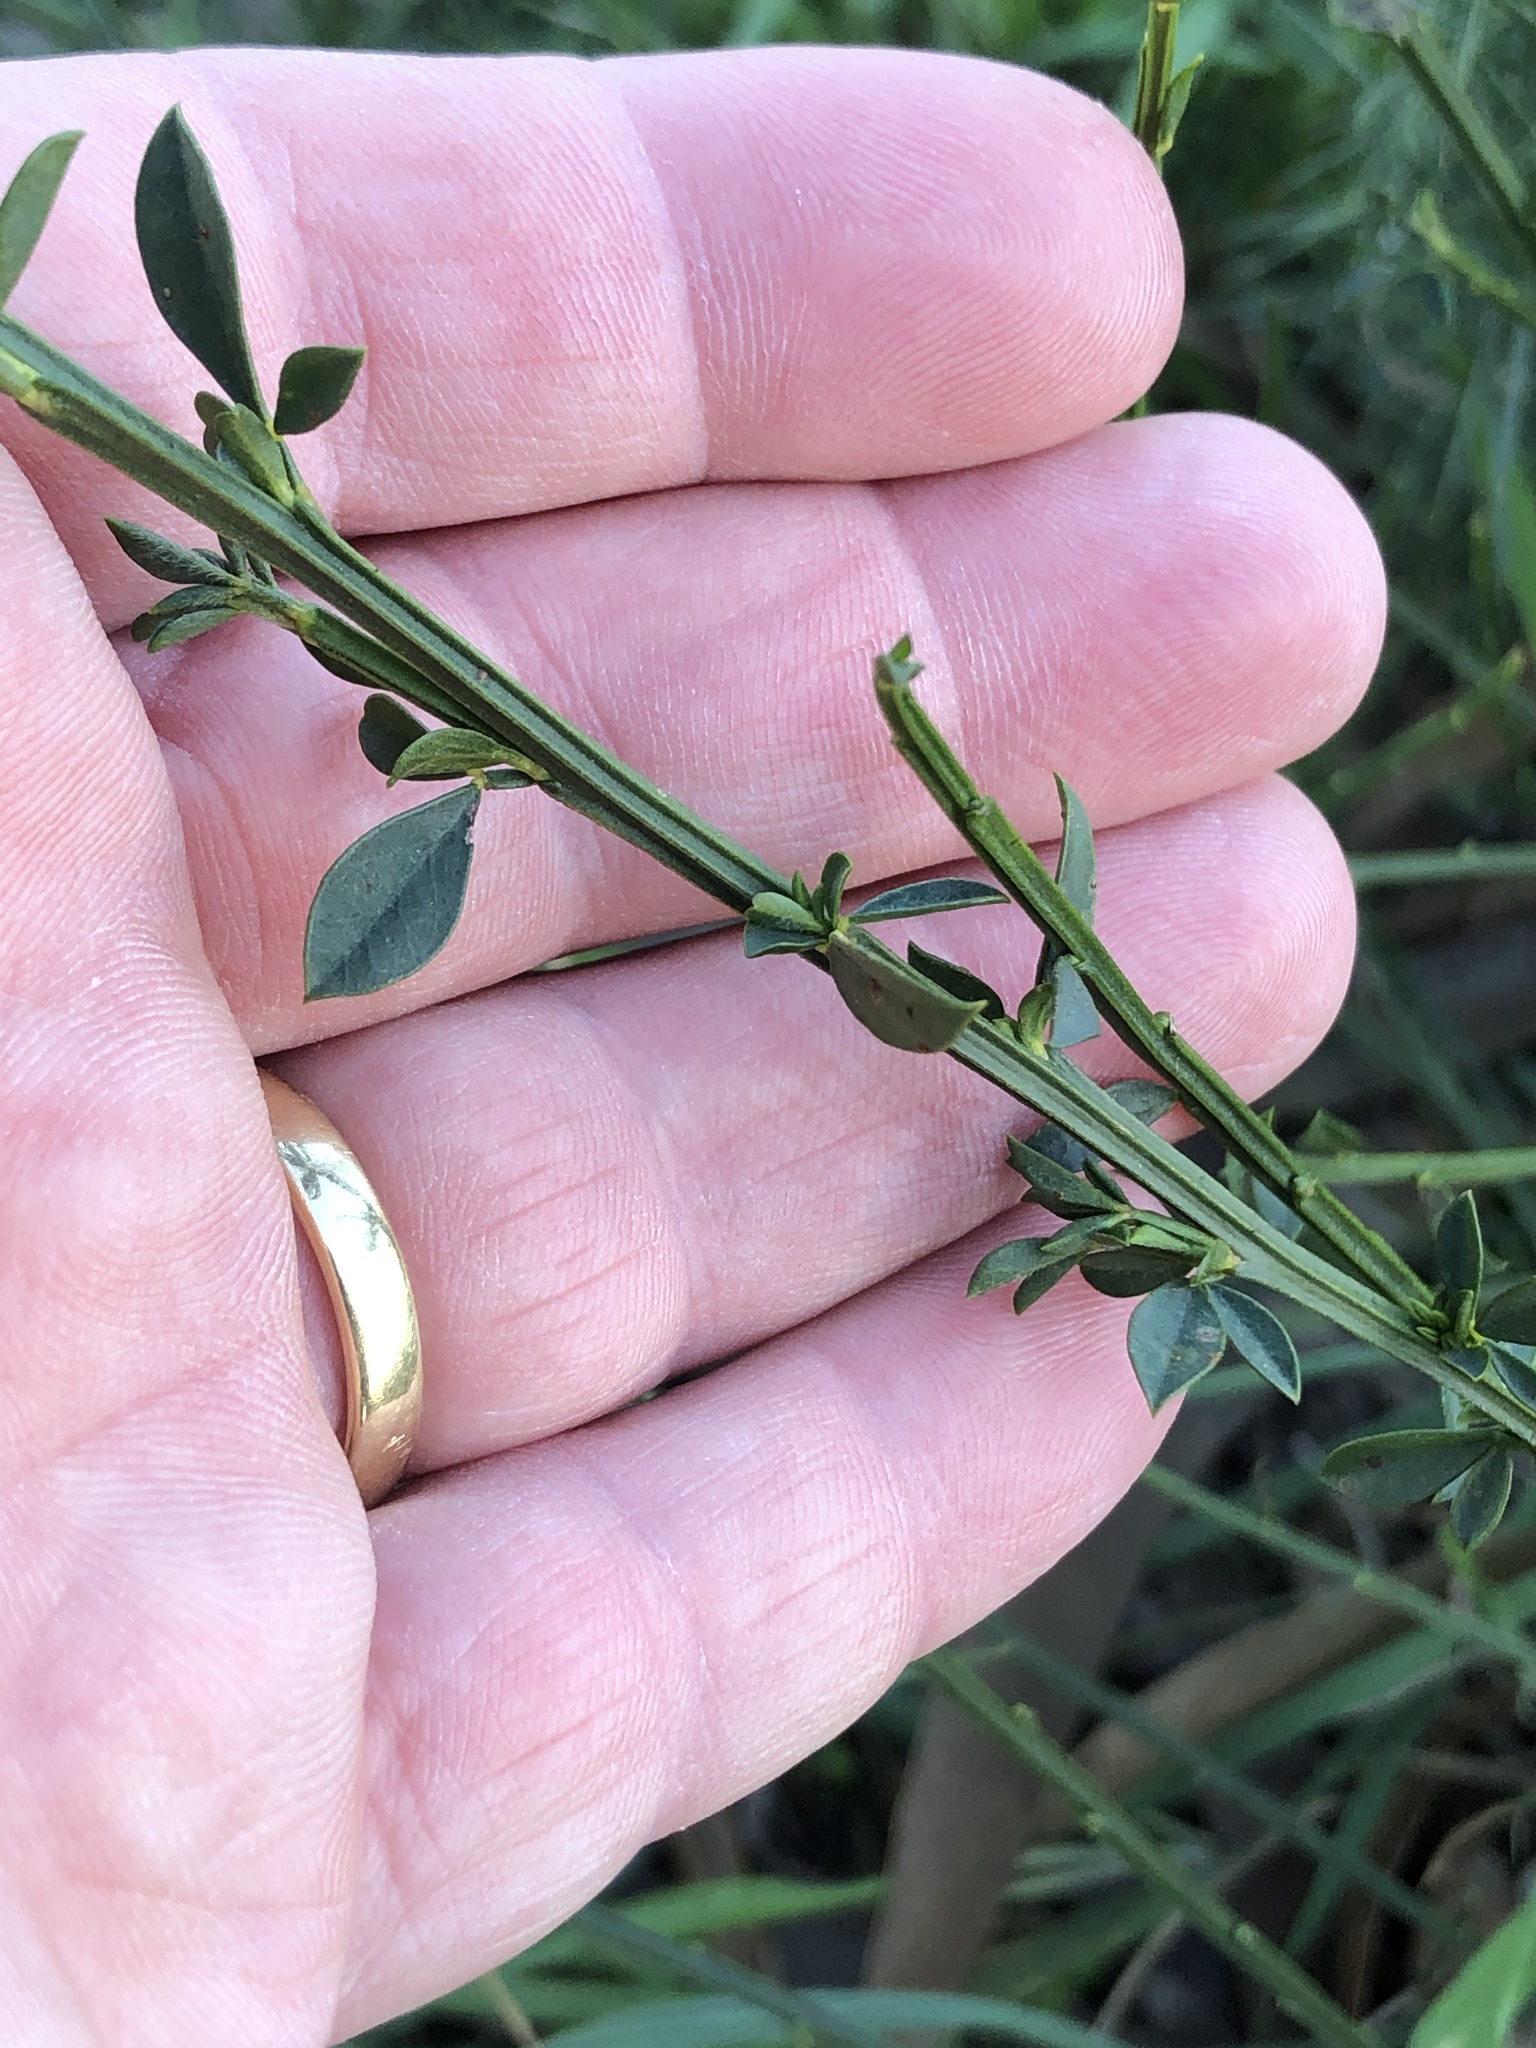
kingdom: Plantae
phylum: Tracheophyta
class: Magnoliopsida
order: Fabales
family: Fabaceae
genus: Cytisus
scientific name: Cytisus scoparius
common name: Scotch broom
